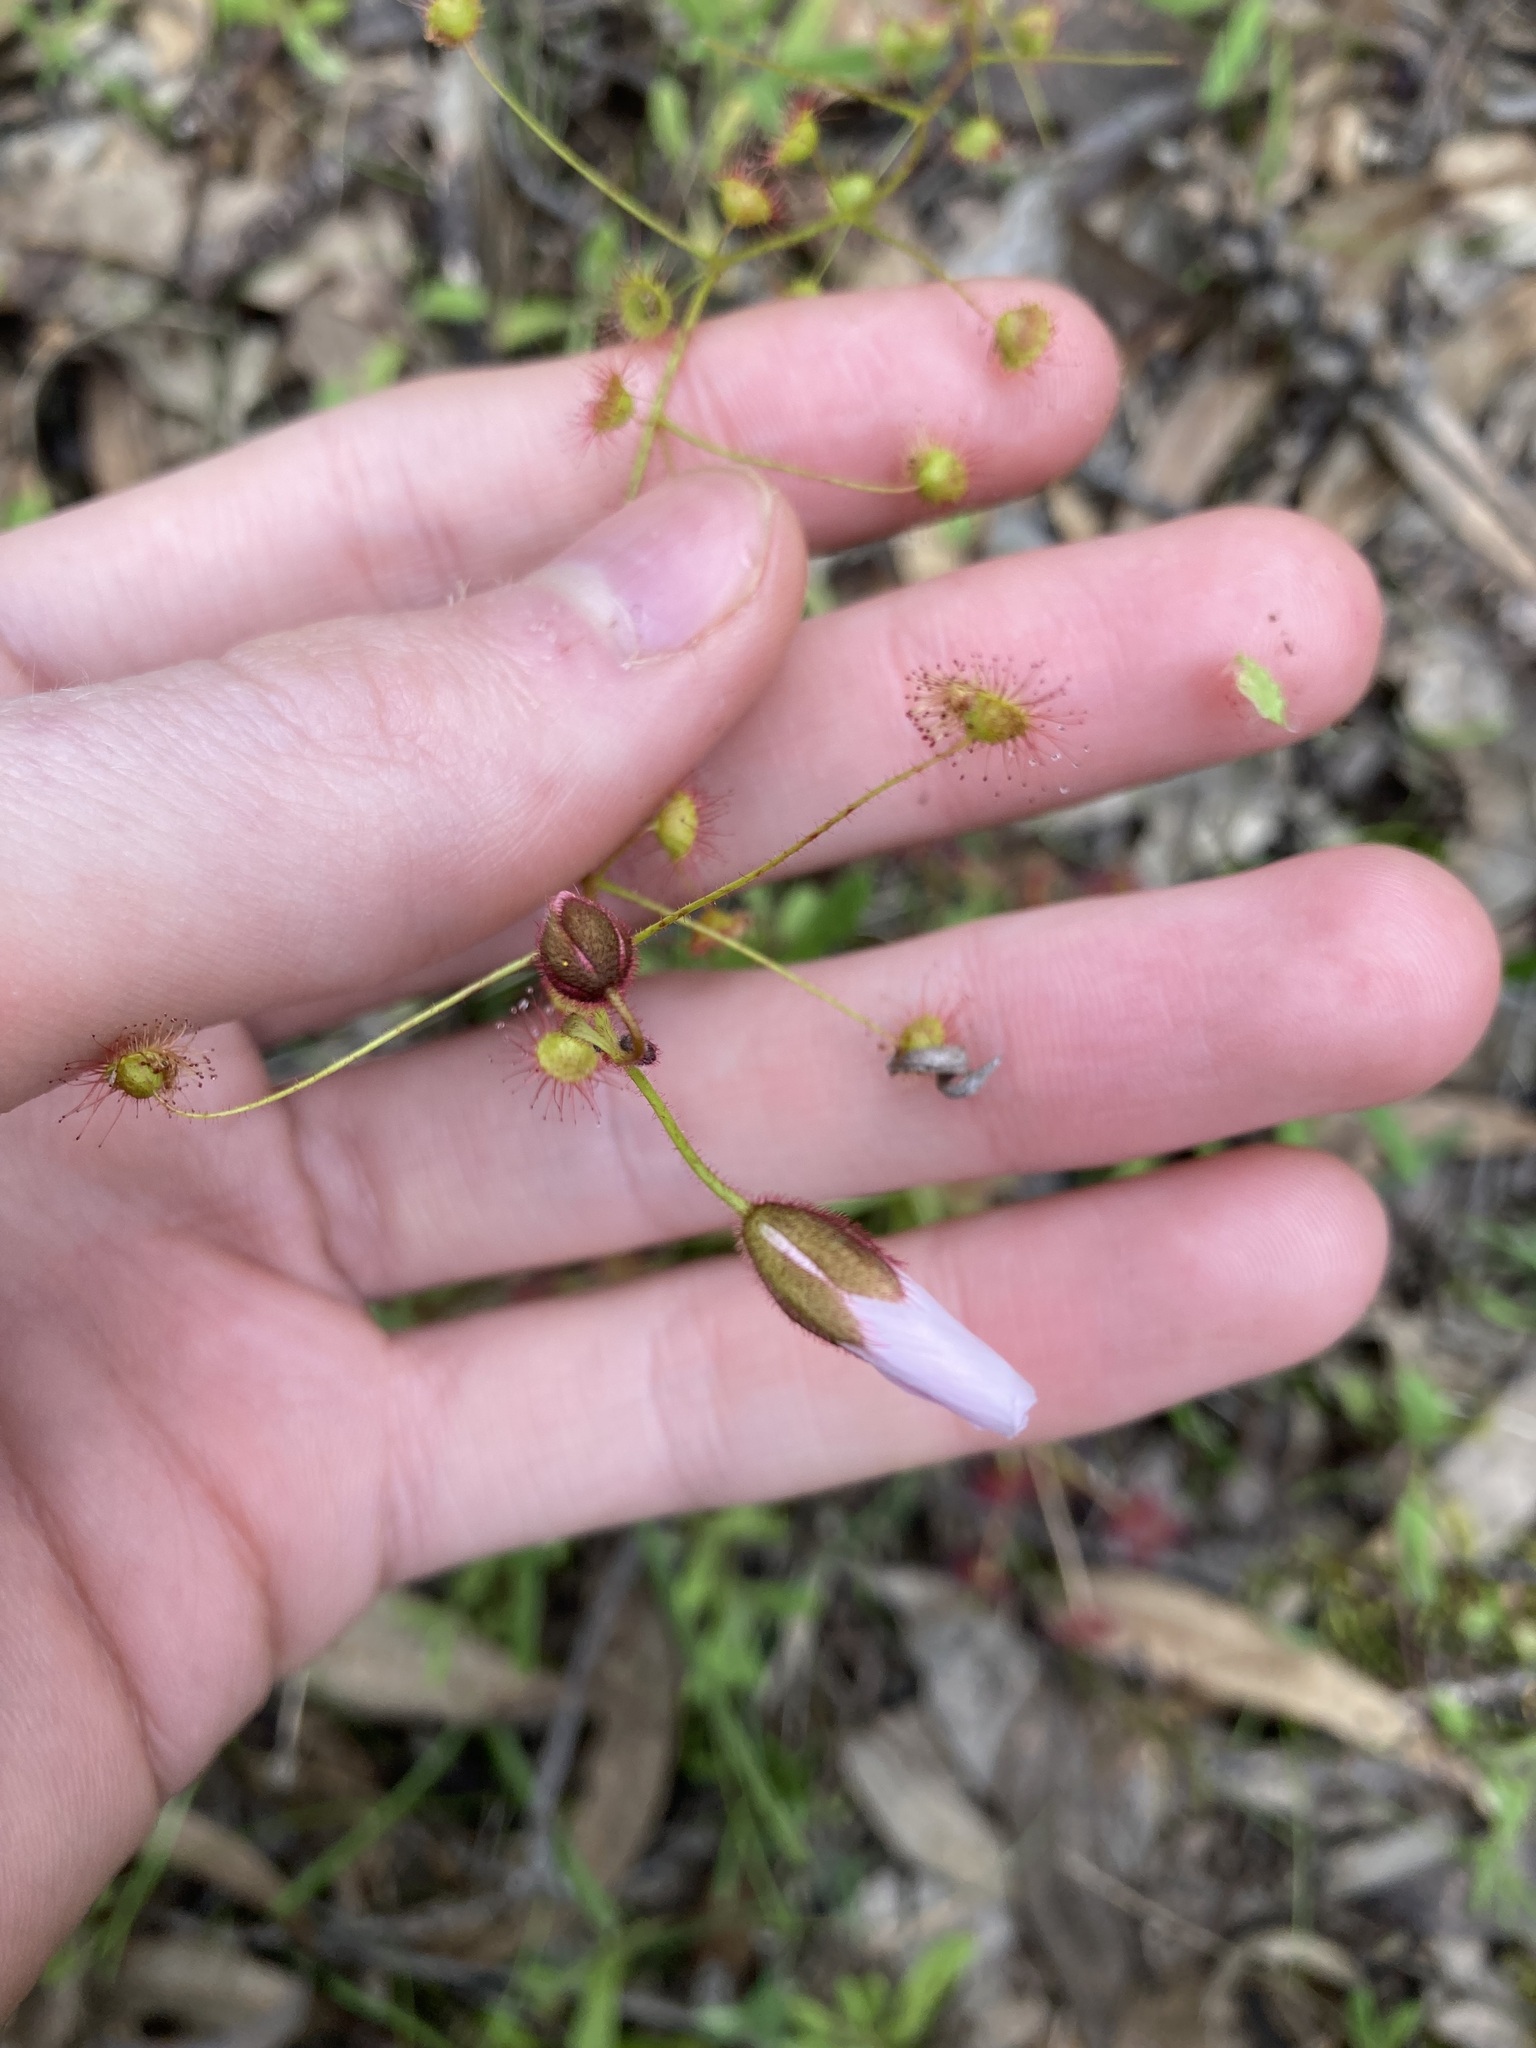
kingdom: Plantae
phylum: Tracheophyta
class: Magnoliopsida
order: Caryophyllales
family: Droseraceae
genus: Drosera
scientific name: Drosera macrantha
